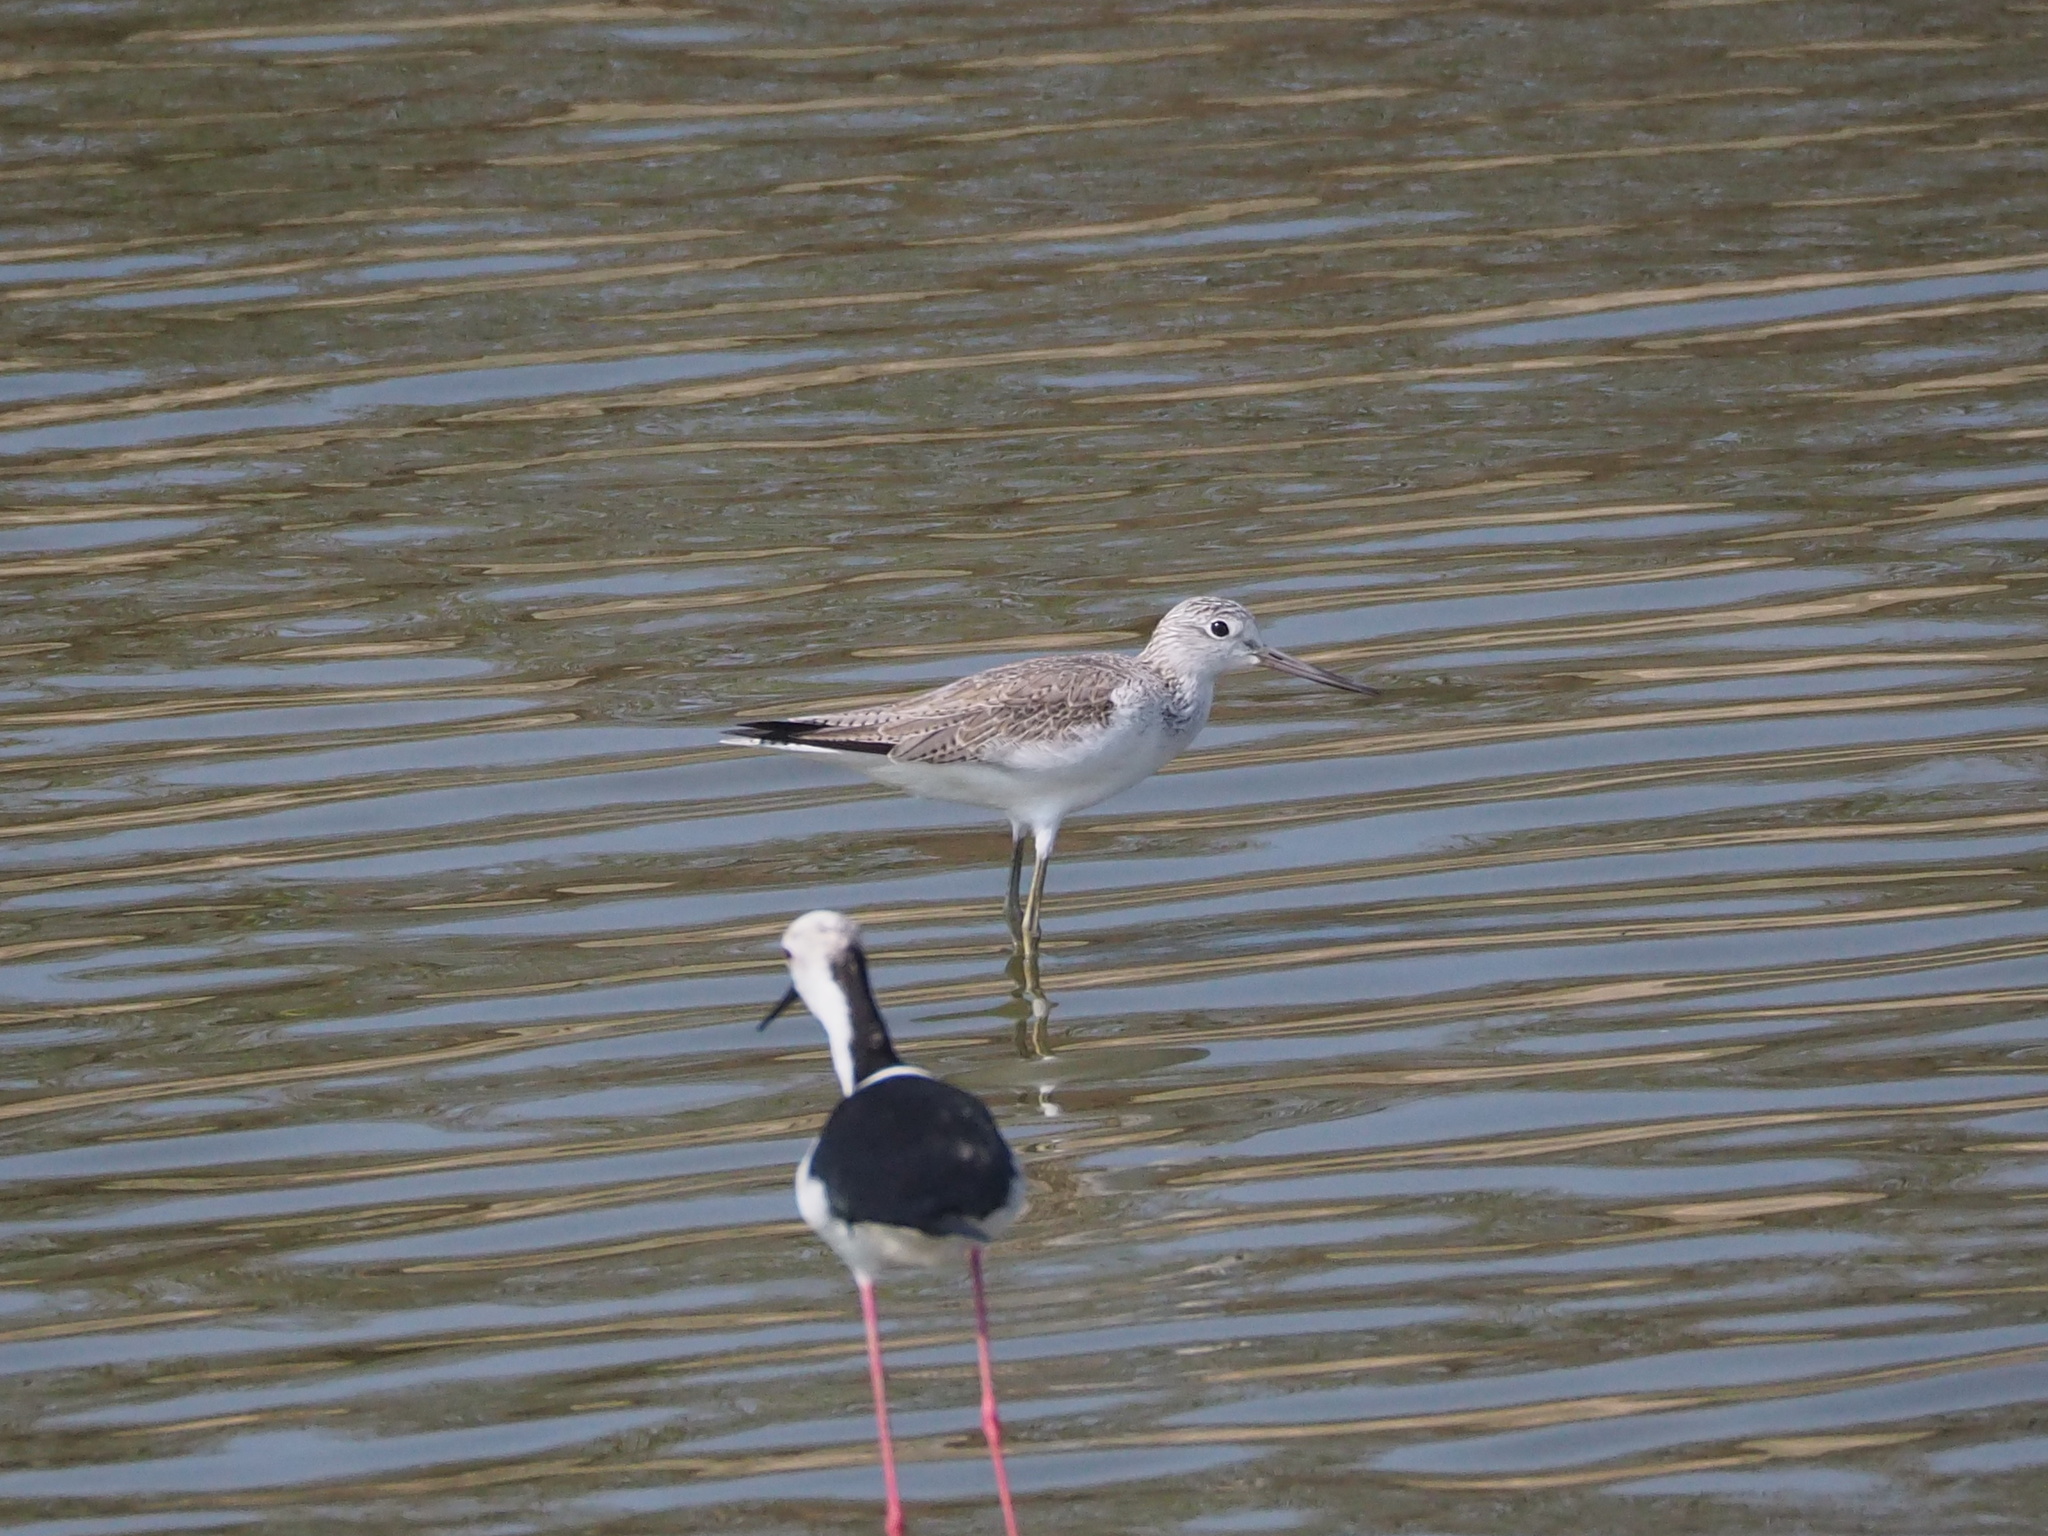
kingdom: Animalia
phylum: Chordata
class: Aves
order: Charadriiformes
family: Scolopacidae
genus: Tringa
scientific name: Tringa nebularia
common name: Common greenshank
